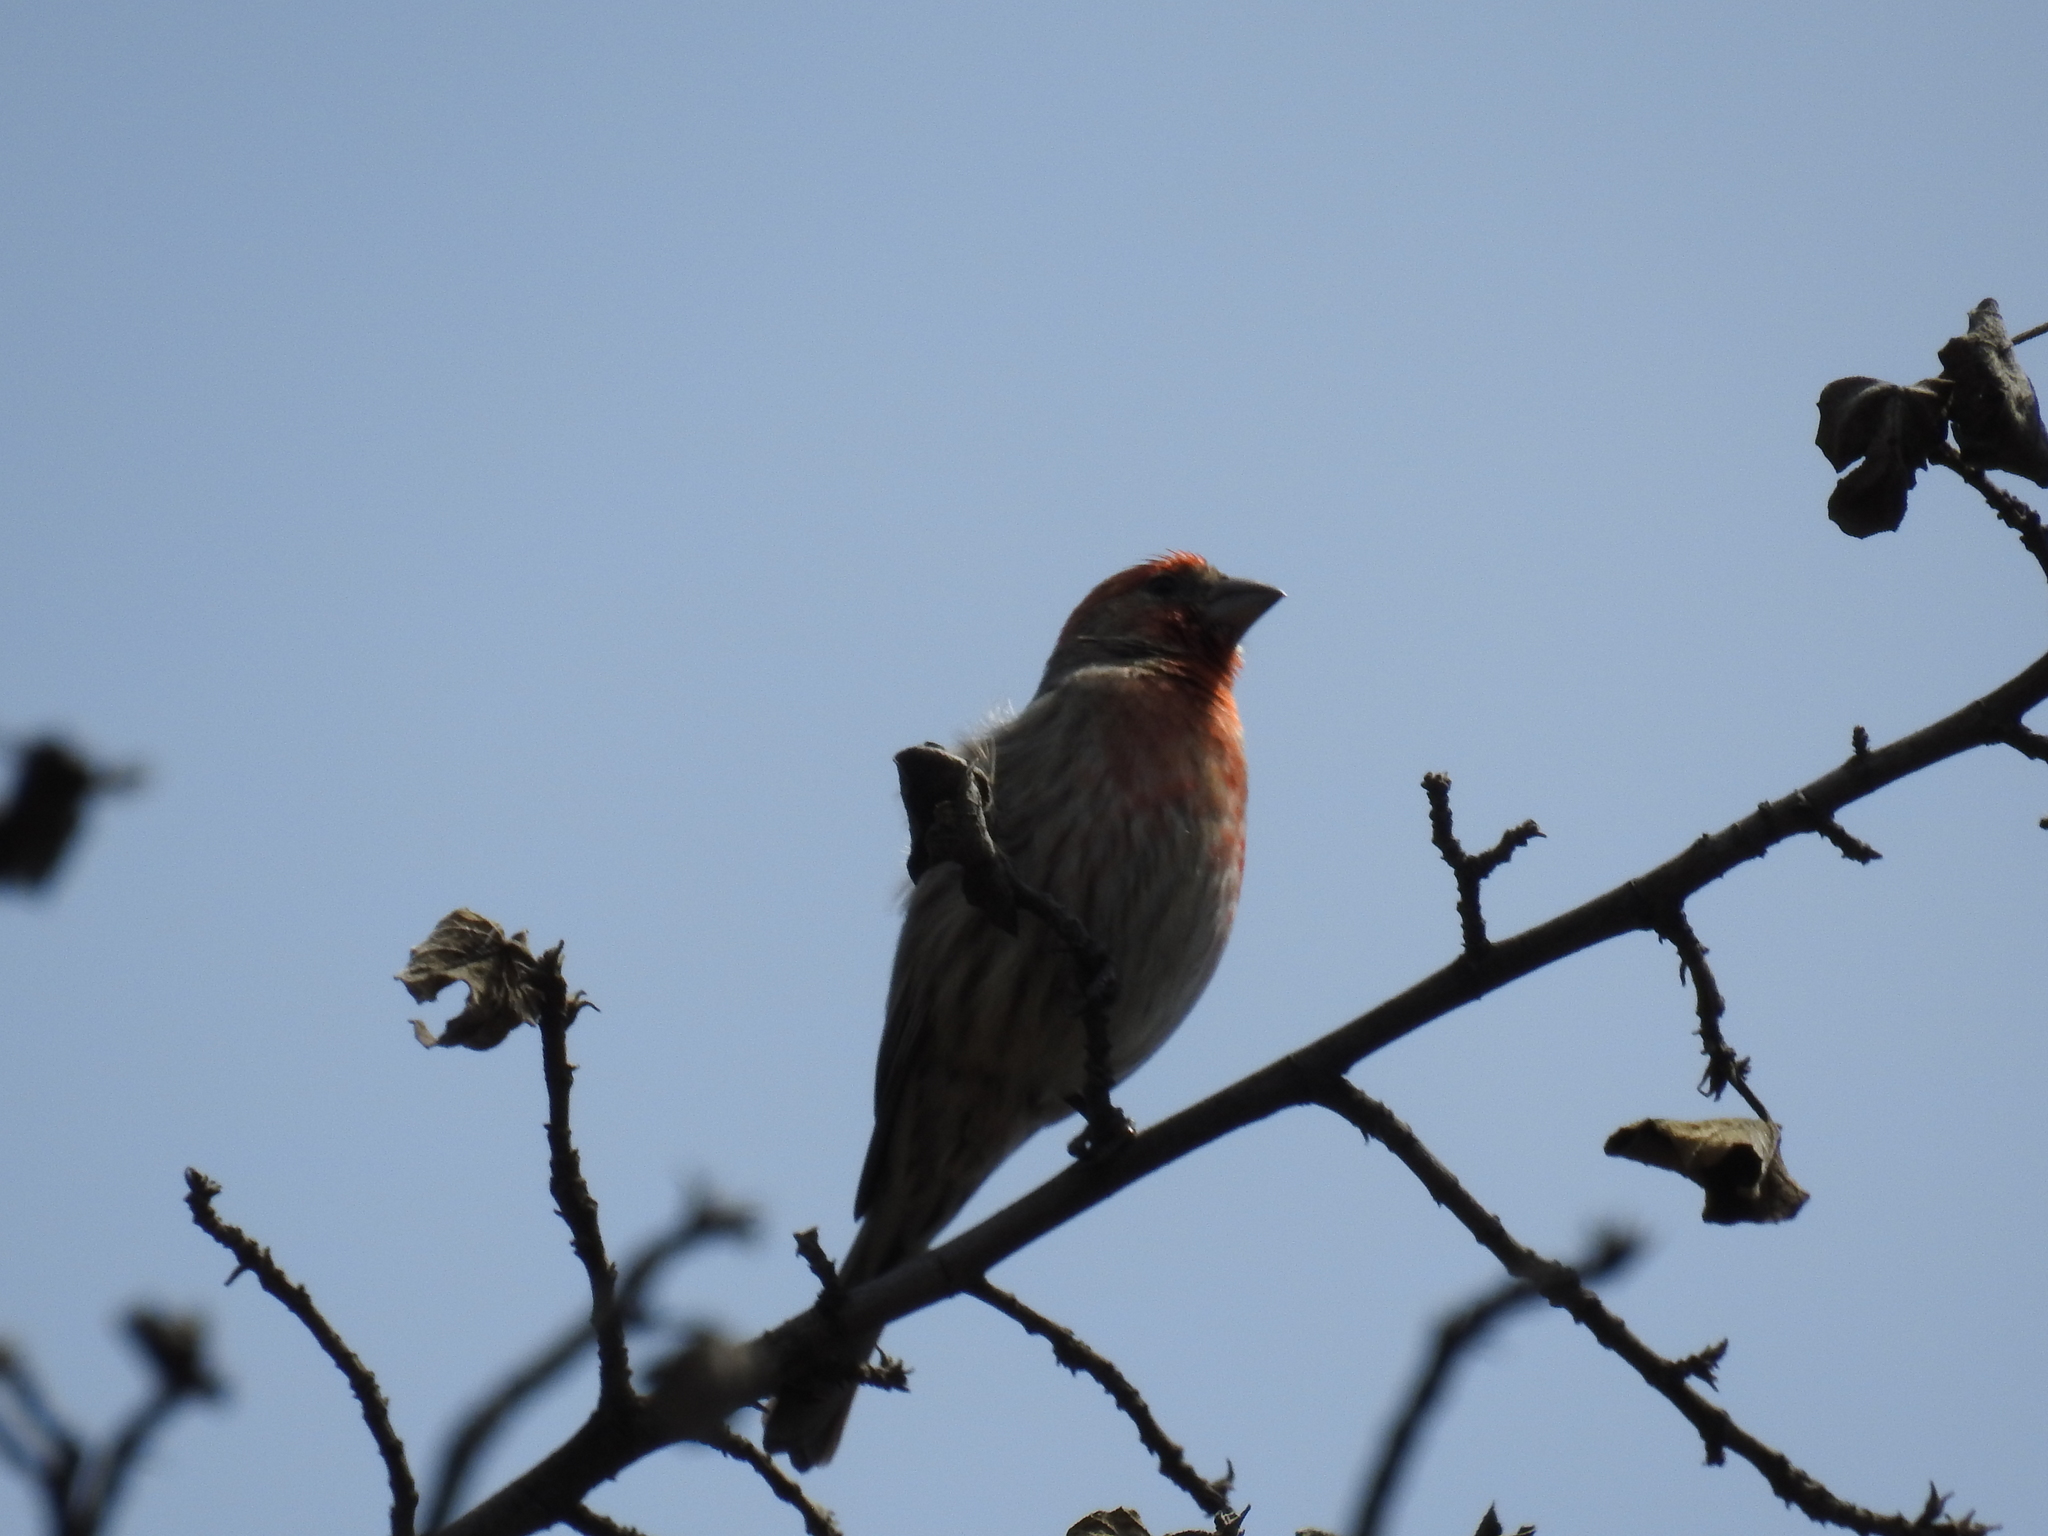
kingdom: Animalia
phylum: Chordata
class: Aves
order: Passeriformes
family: Fringillidae
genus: Haemorhous
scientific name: Haemorhous mexicanus
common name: House finch
